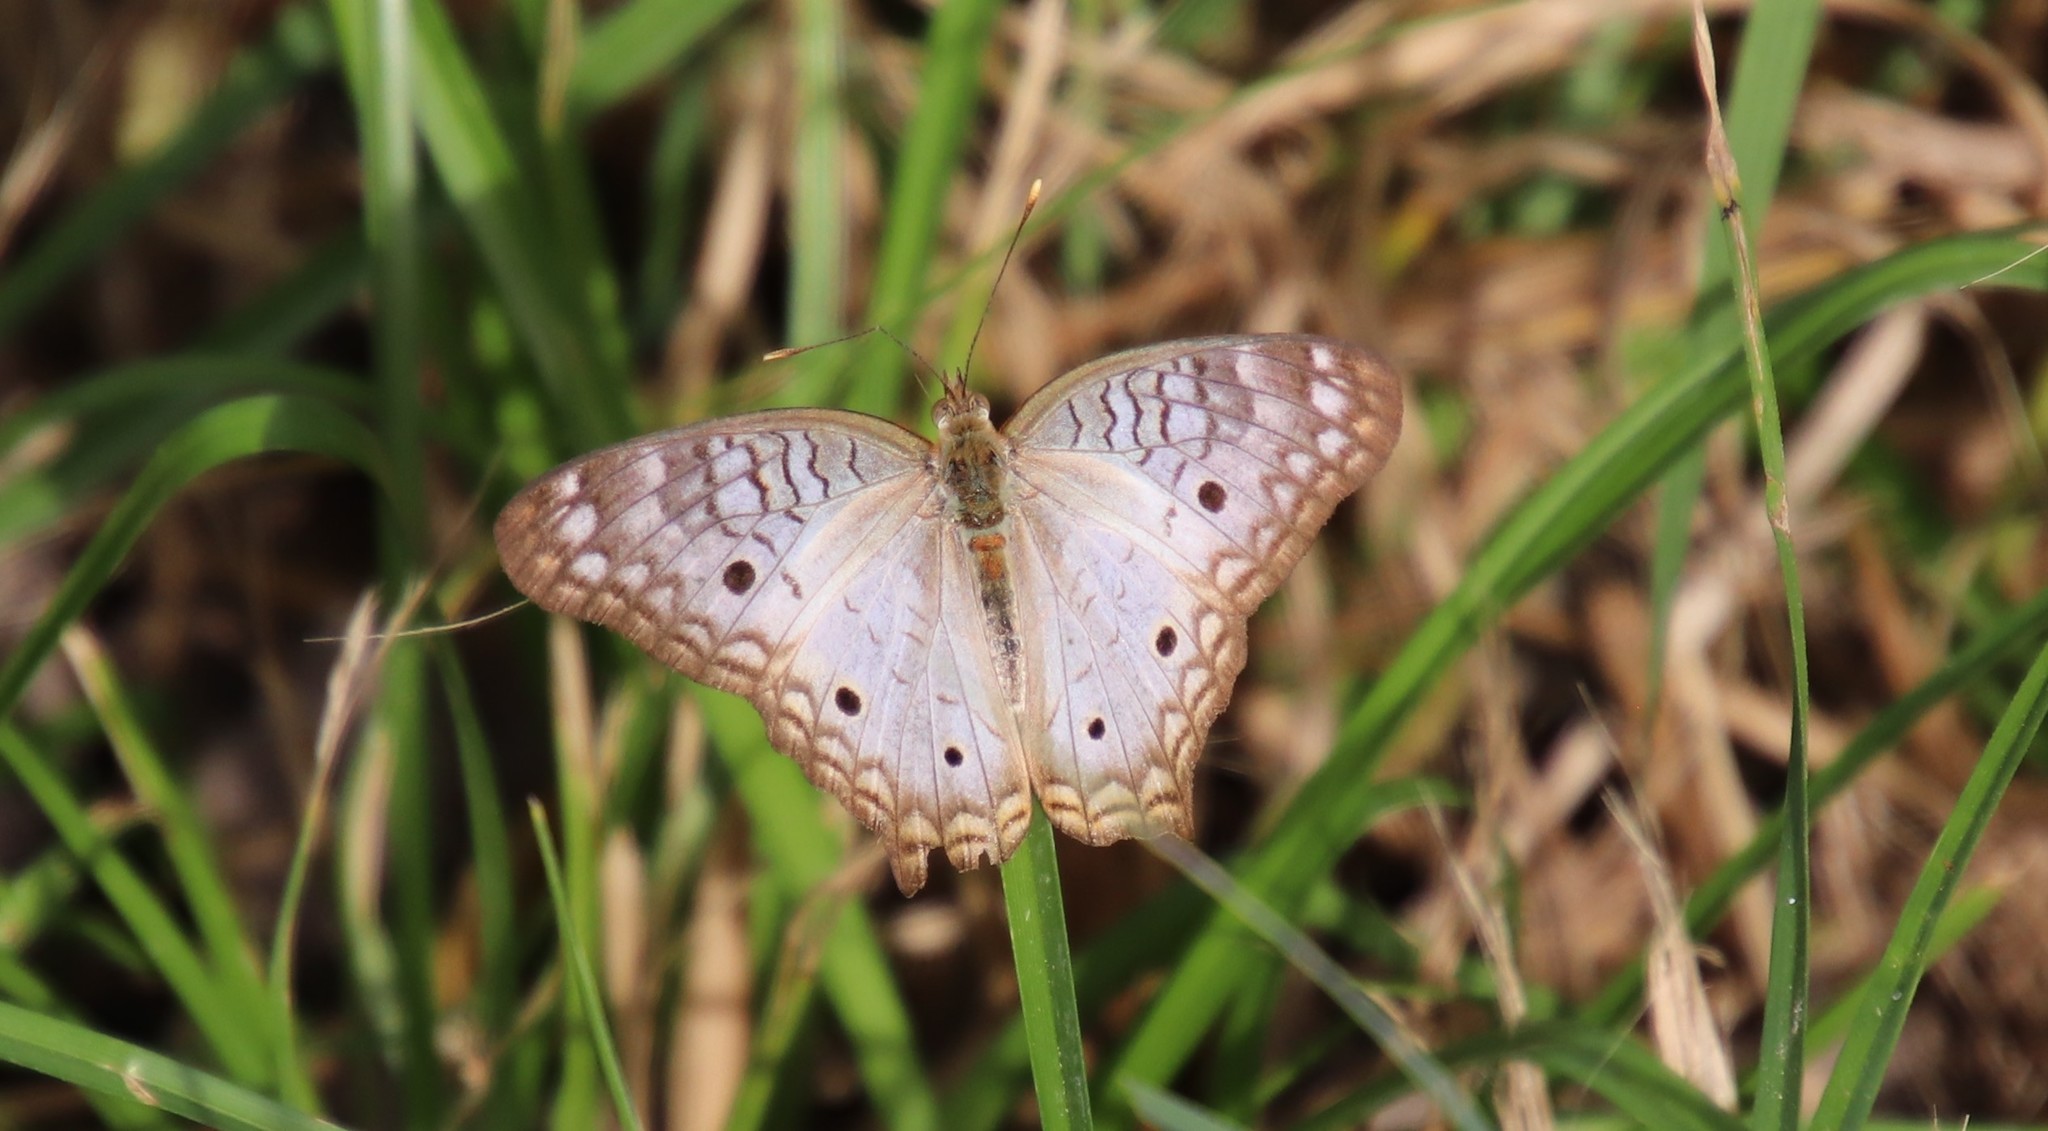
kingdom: Animalia
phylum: Arthropoda
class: Insecta
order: Lepidoptera
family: Nymphalidae
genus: Anartia
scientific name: Anartia jatrophae
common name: White peacock
